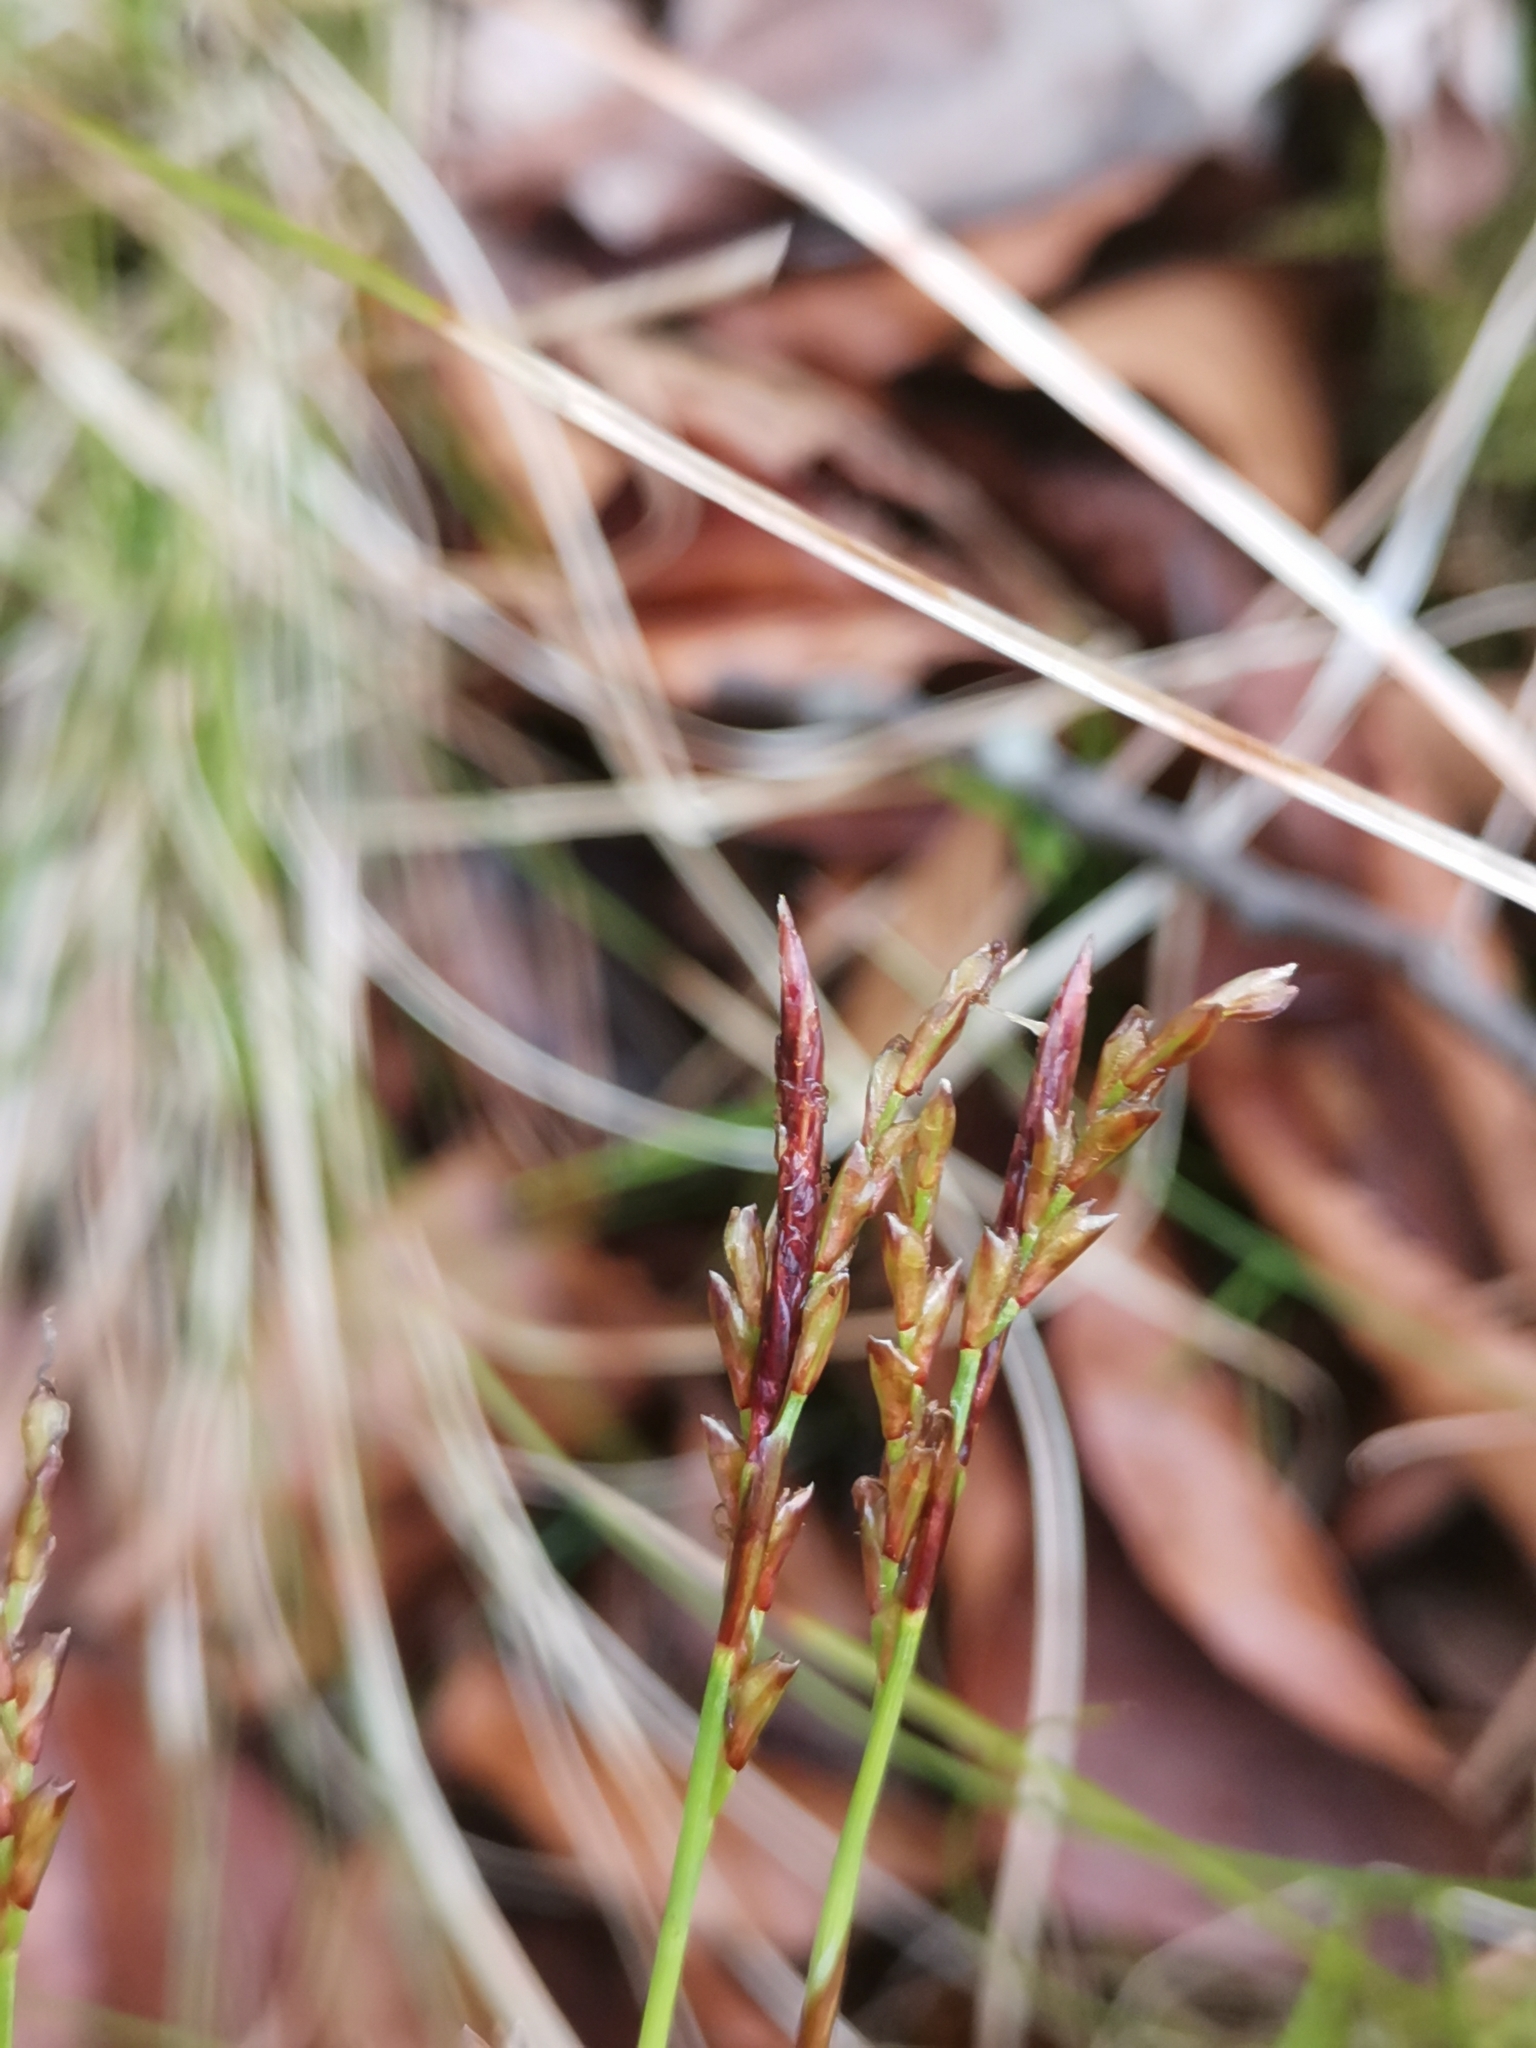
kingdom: Plantae
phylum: Tracheophyta
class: Liliopsida
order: Poales
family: Cyperaceae
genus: Carex
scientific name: Carex digitata
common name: Fingered sedge
